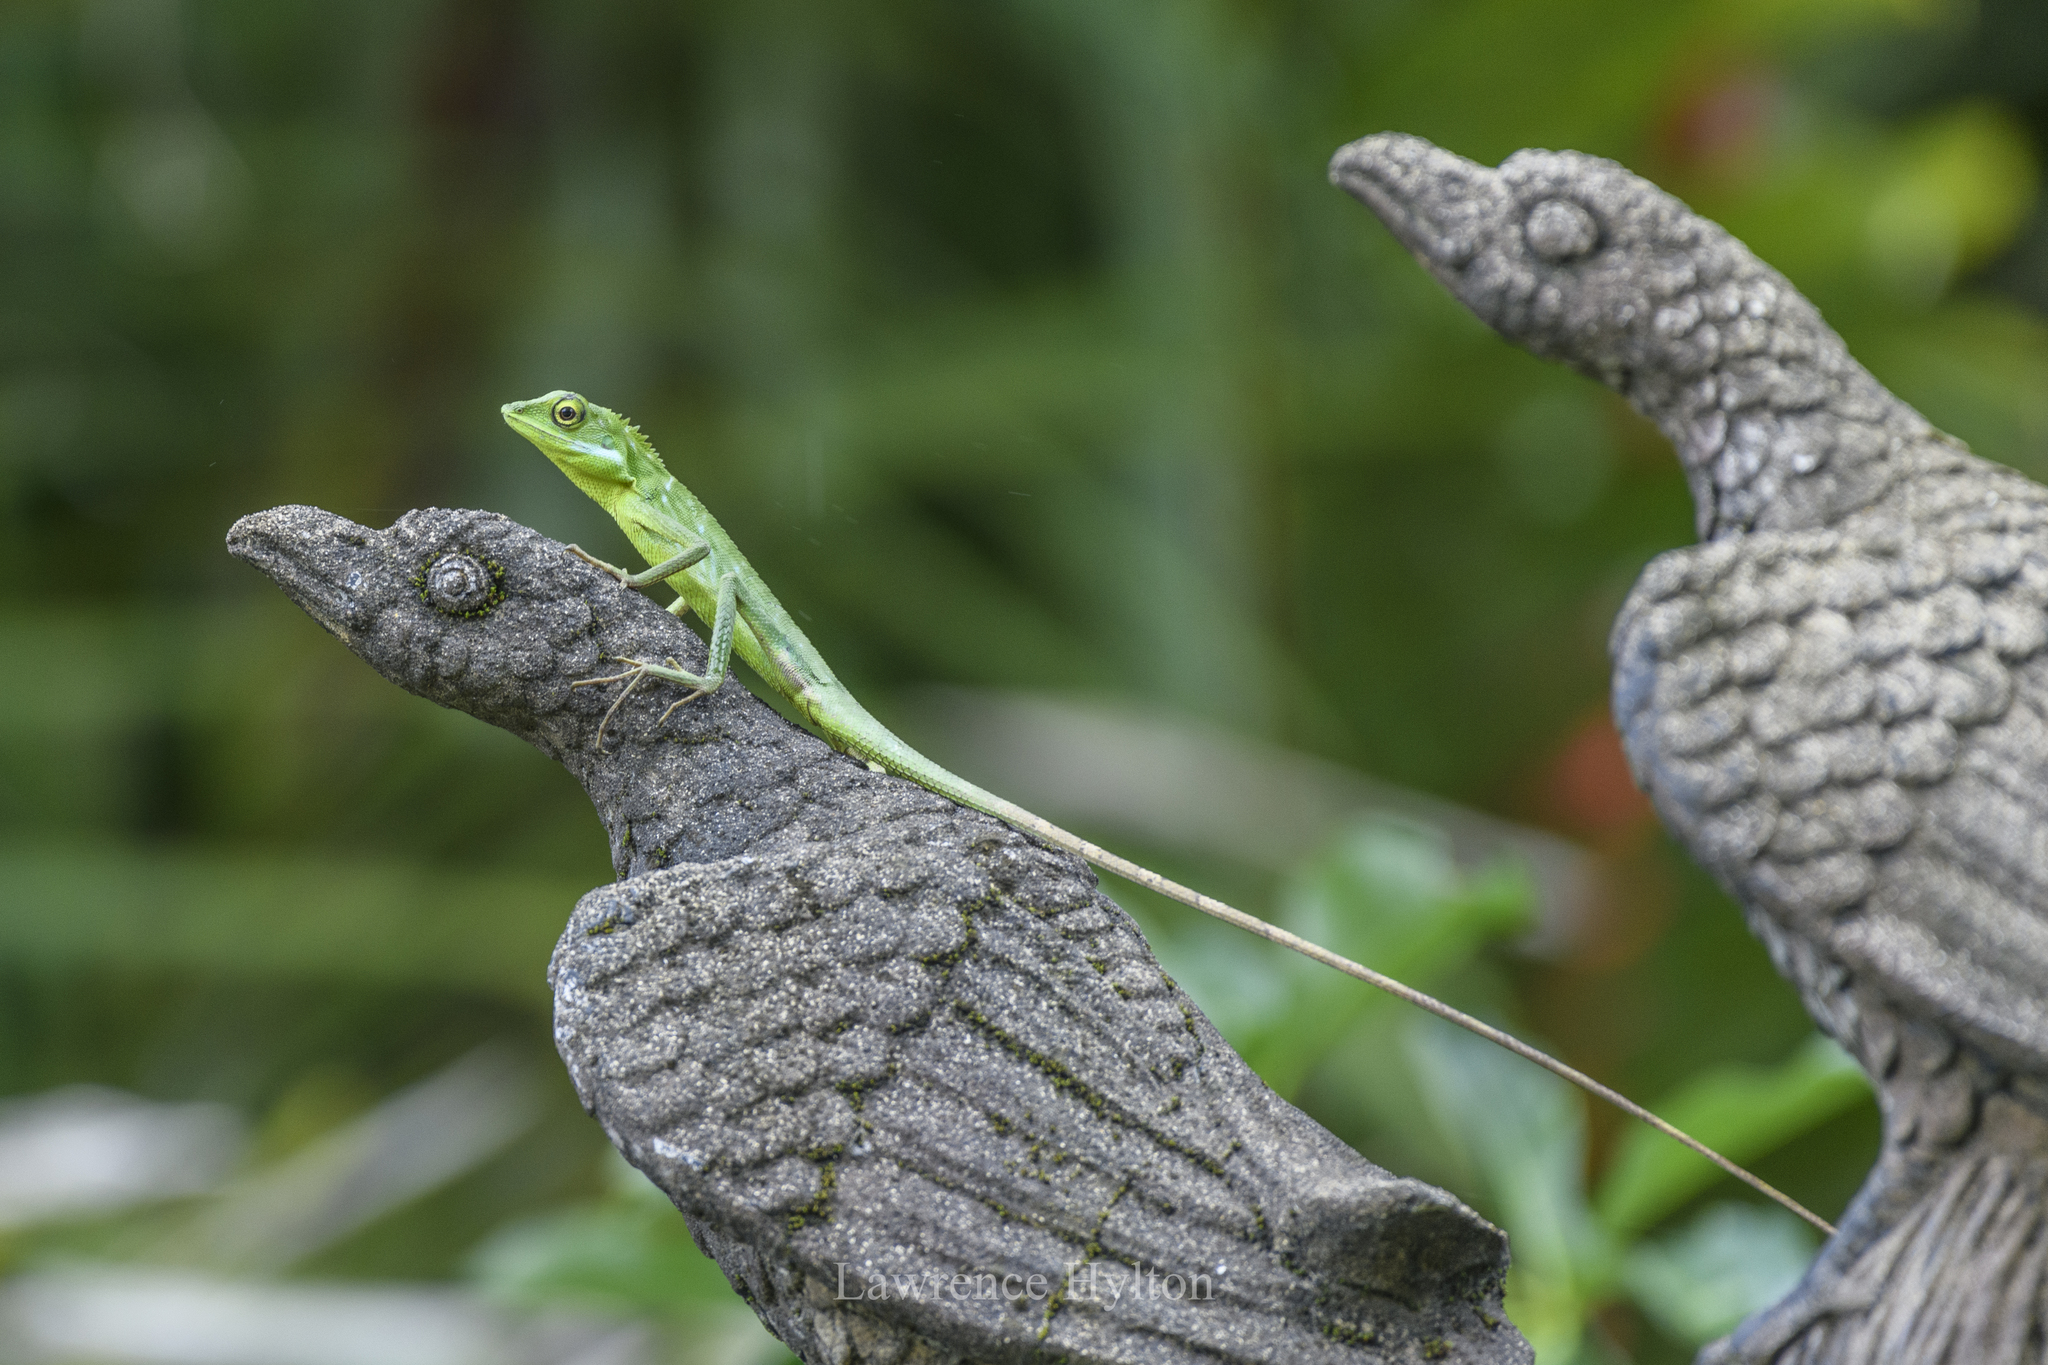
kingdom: Animalia
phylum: Chordata
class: Squamata
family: Agamidae
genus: Bronchocela
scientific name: Bronchocela rayaensis
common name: Gunung raya green-crested lizard
